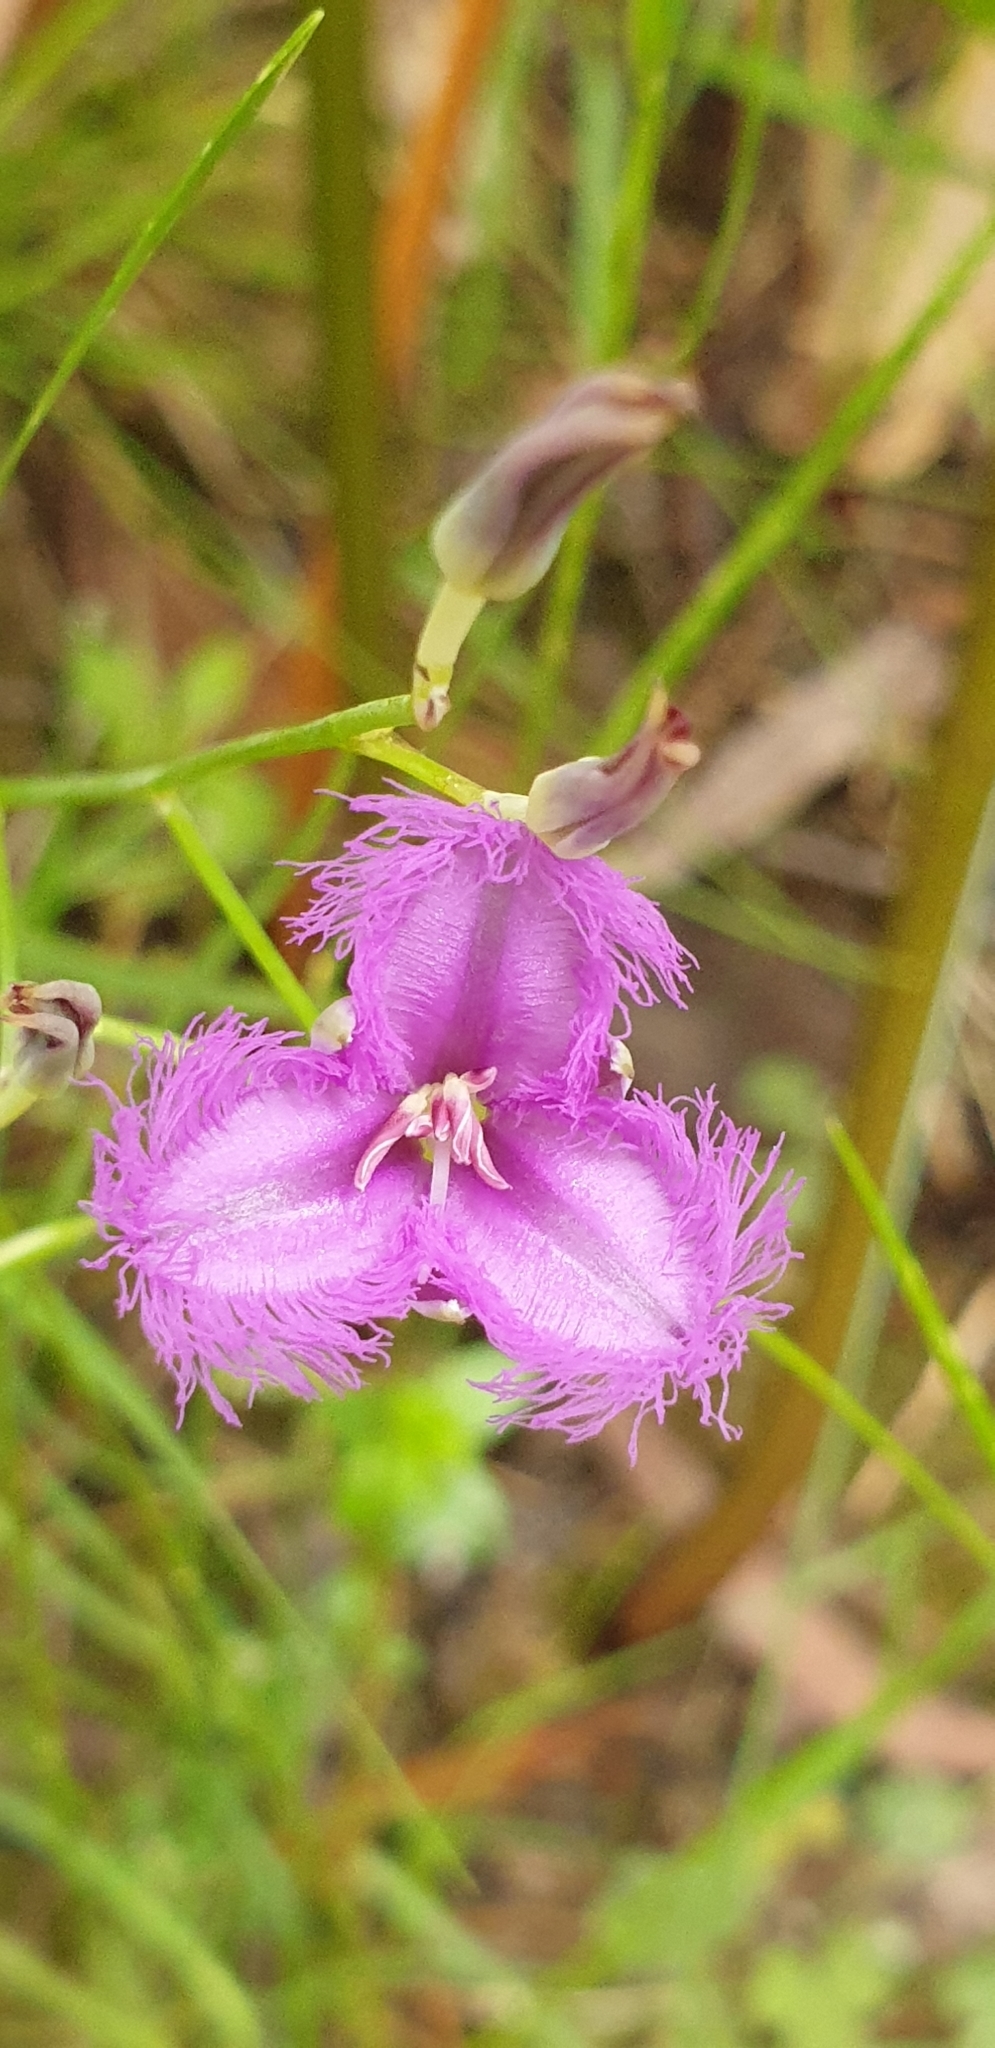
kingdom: Plantae
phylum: Tracheophyta
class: Liliopsida
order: Asparagales
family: Asparagaceae
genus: Thysanotus
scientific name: Thysanotus tuberosus
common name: Common fringed-lily
